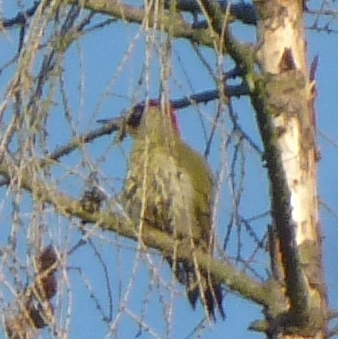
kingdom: Animalia
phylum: Chordata
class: Aves
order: Piciformes
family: Picidae
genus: Picus
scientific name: Picus viridis
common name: European green woodpecker
